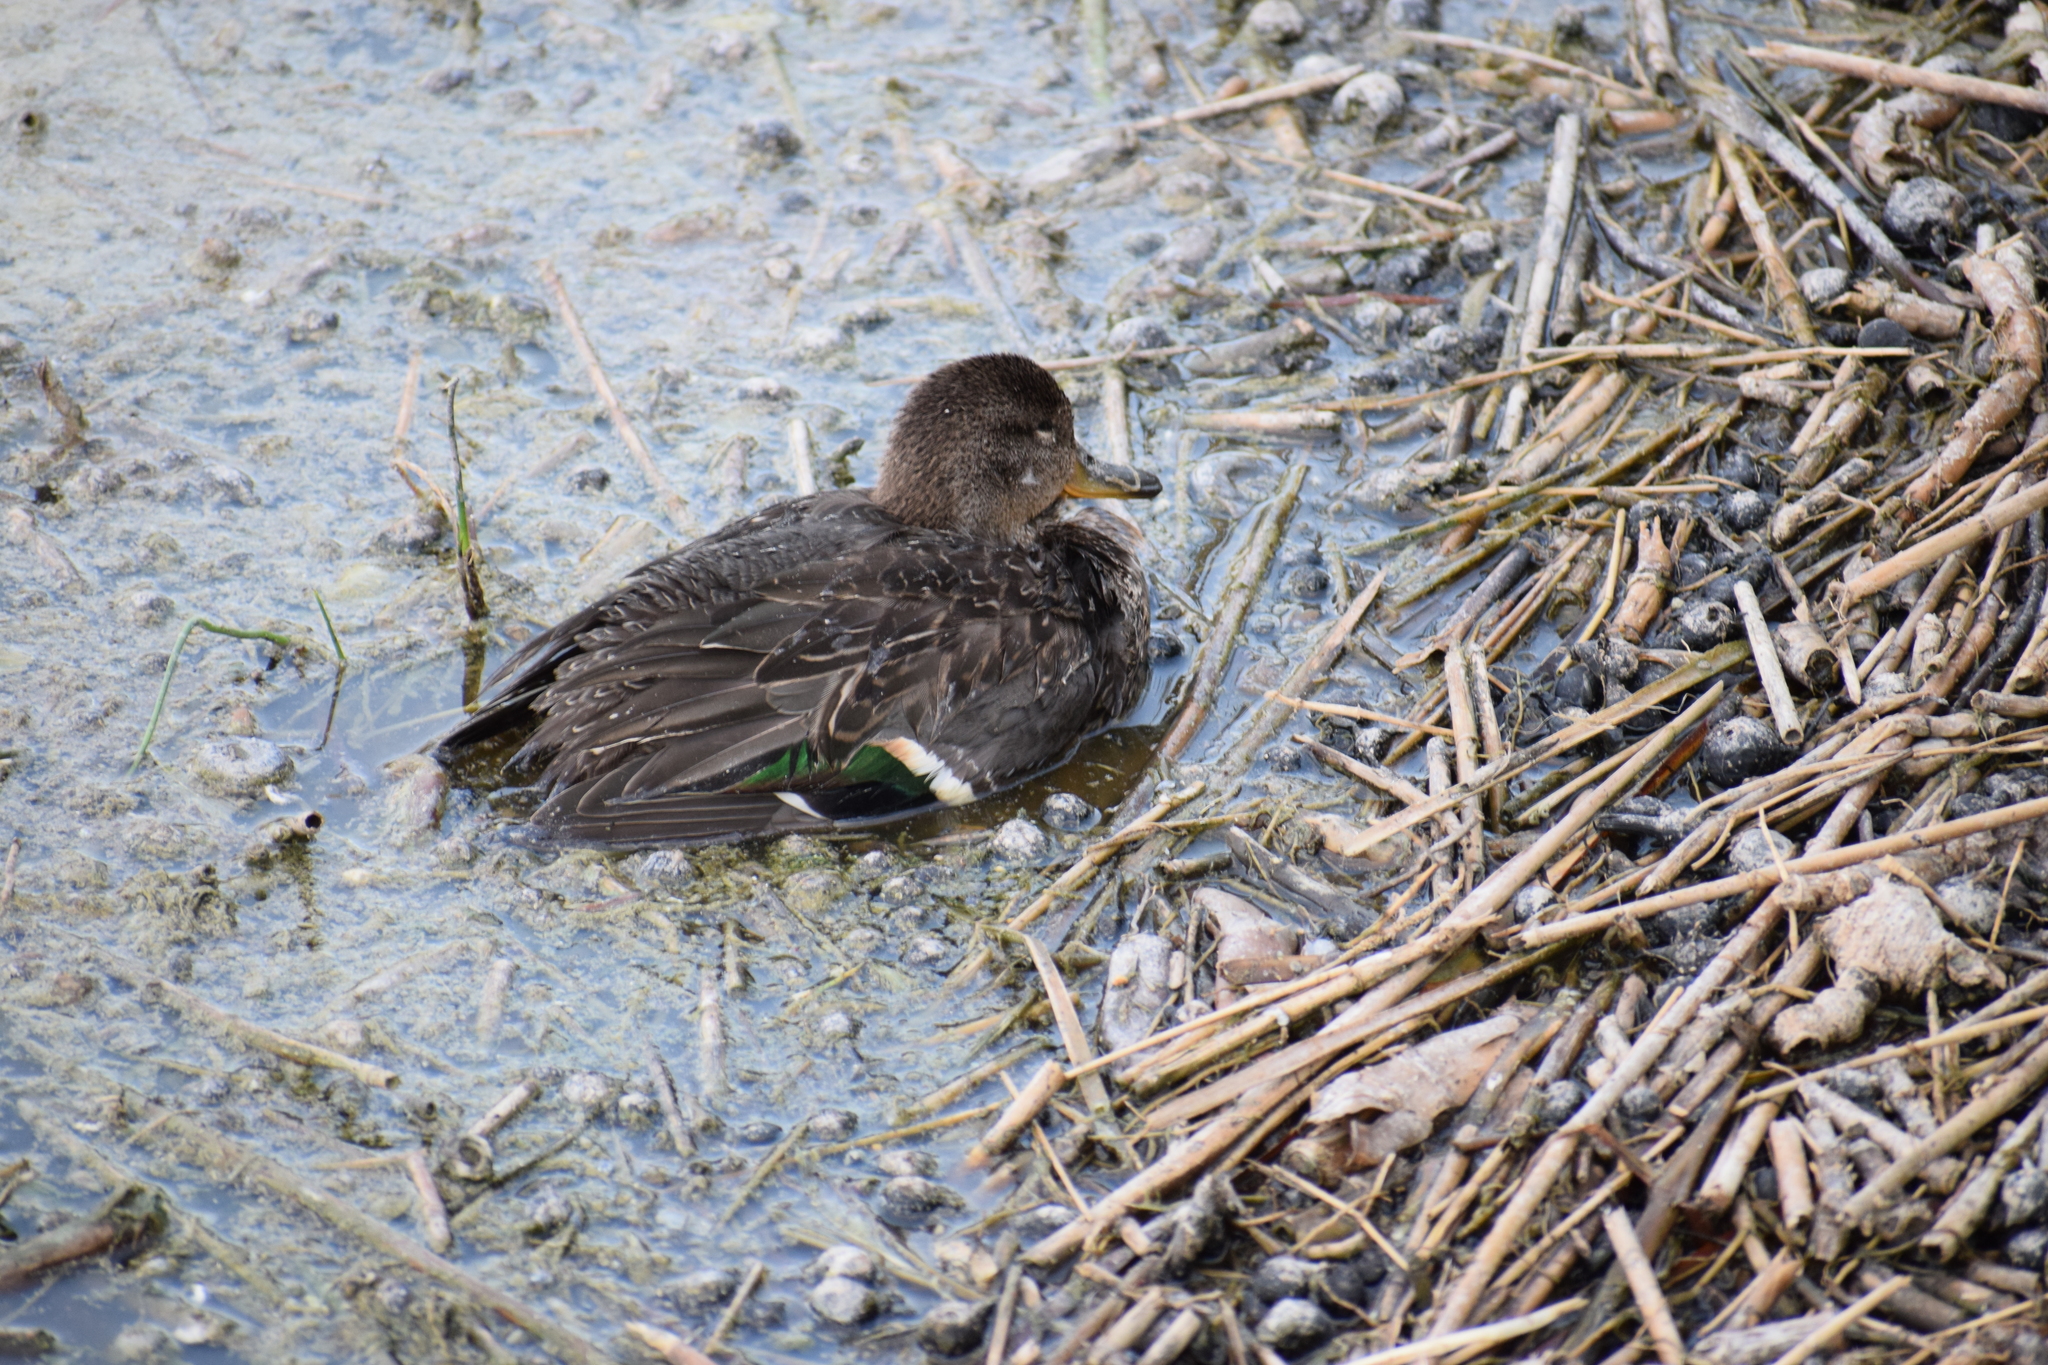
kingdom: Animalia
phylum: Chordata
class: Aves
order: Anseriformes
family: Anatidae
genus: Anas
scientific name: Anas crecca
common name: Eurasian teal
